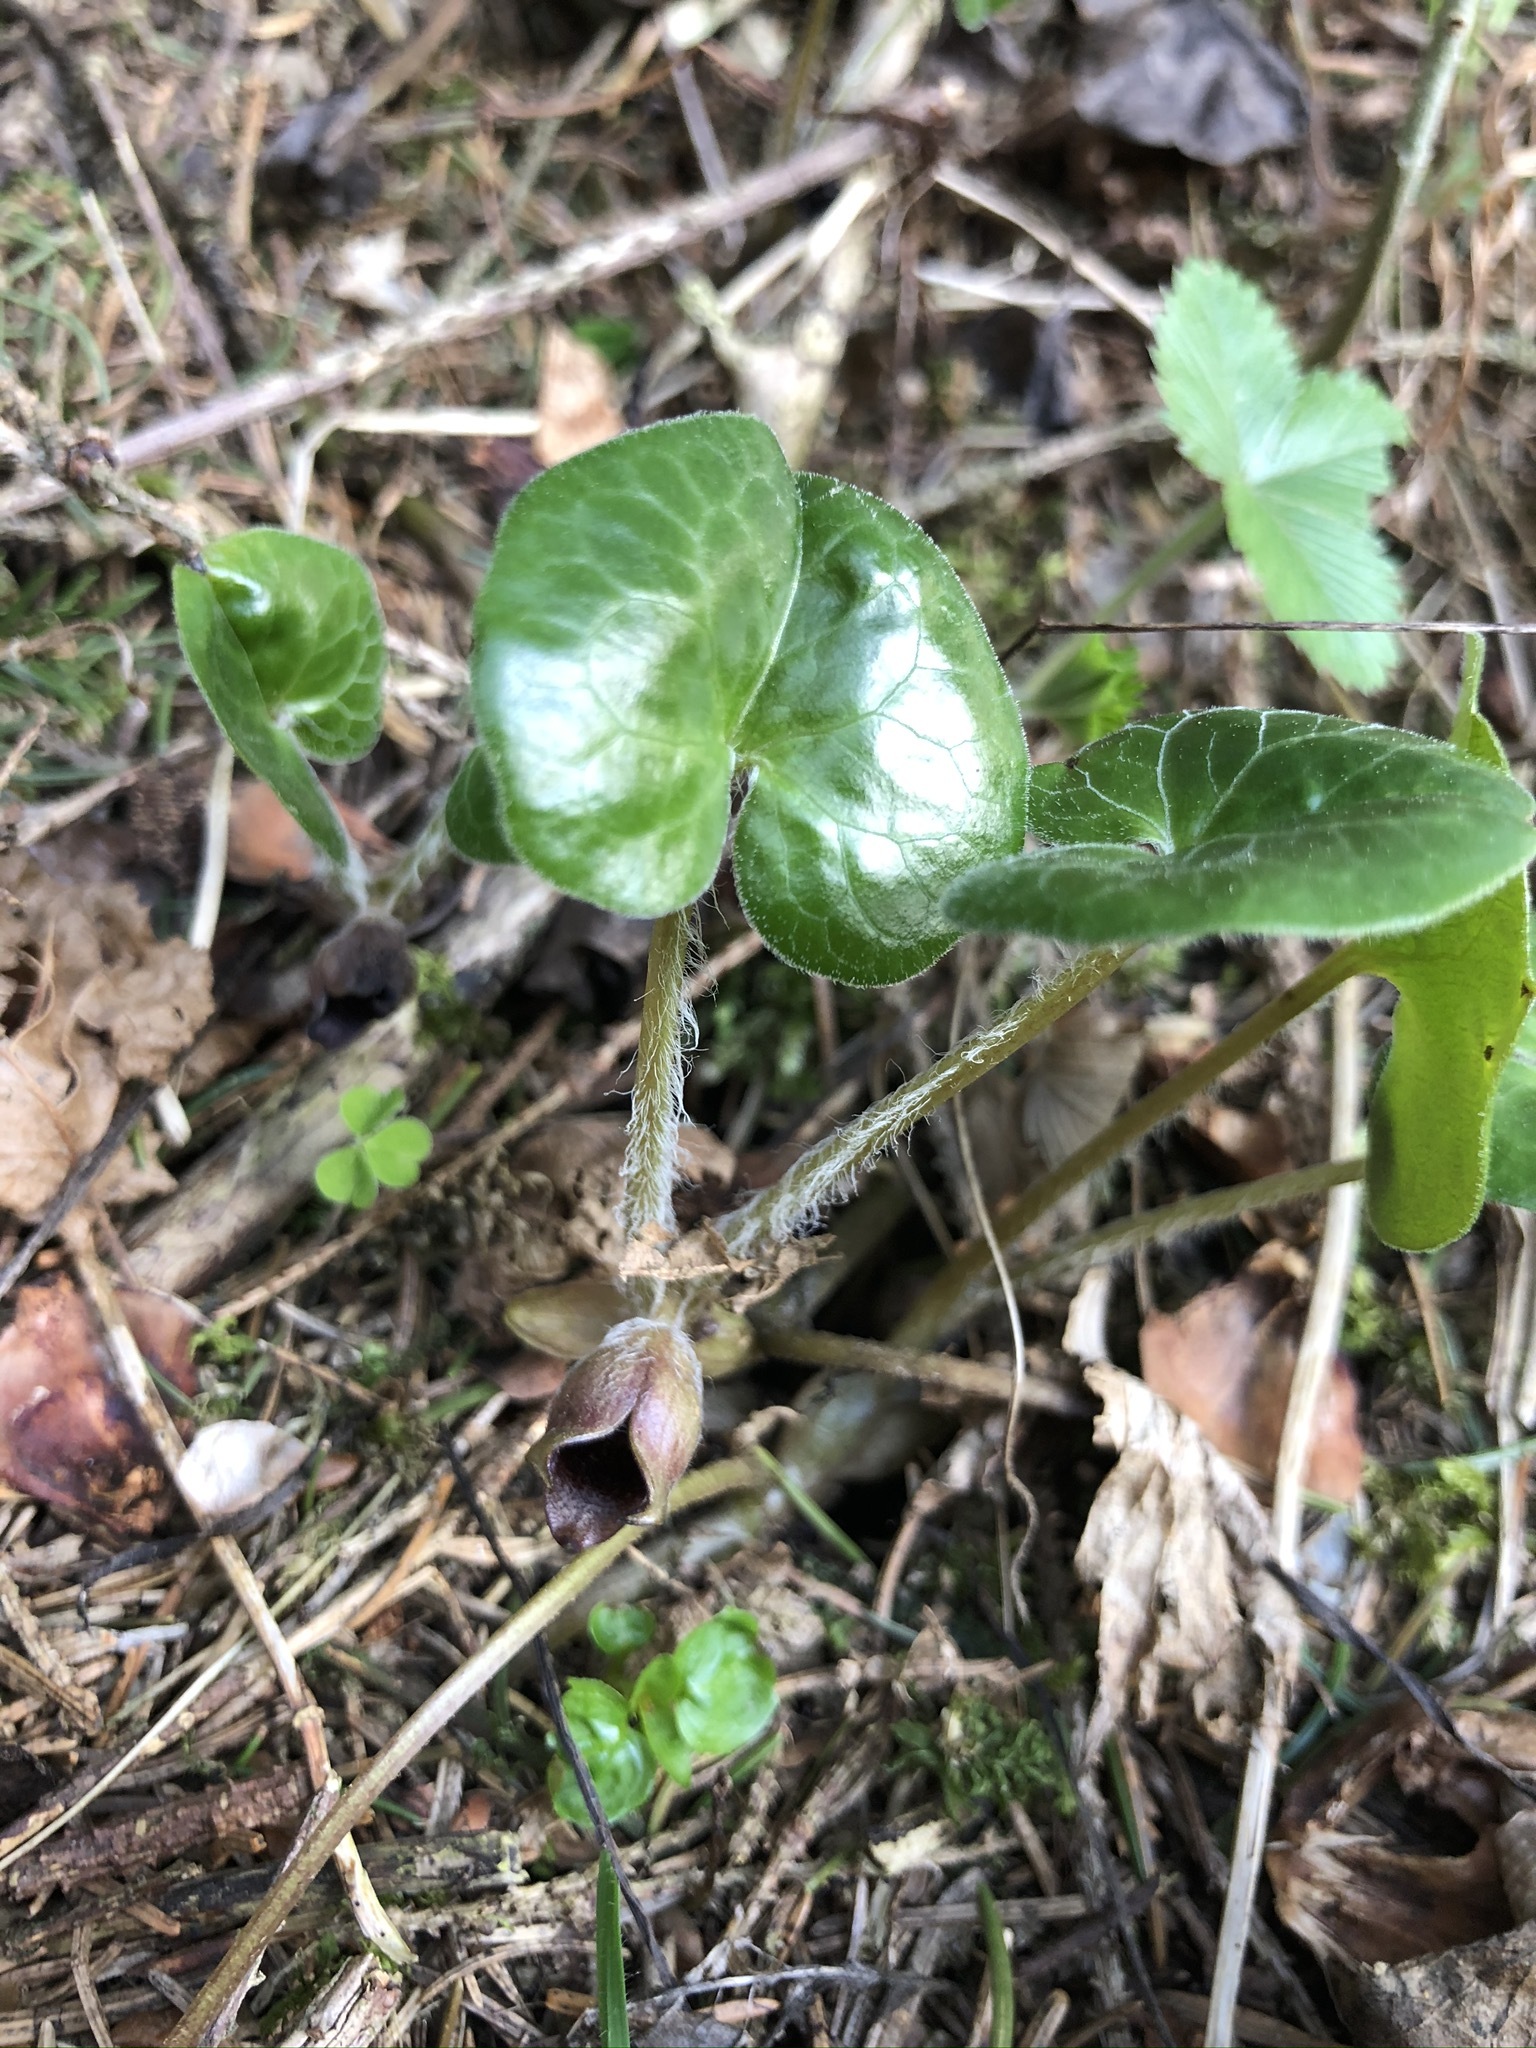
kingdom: Plantae
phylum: Tracheophyta
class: Magnoliopsida
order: Piperales
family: Aristolochiaceae
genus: Asarum
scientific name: Asarum europaeum
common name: Asarabacca
